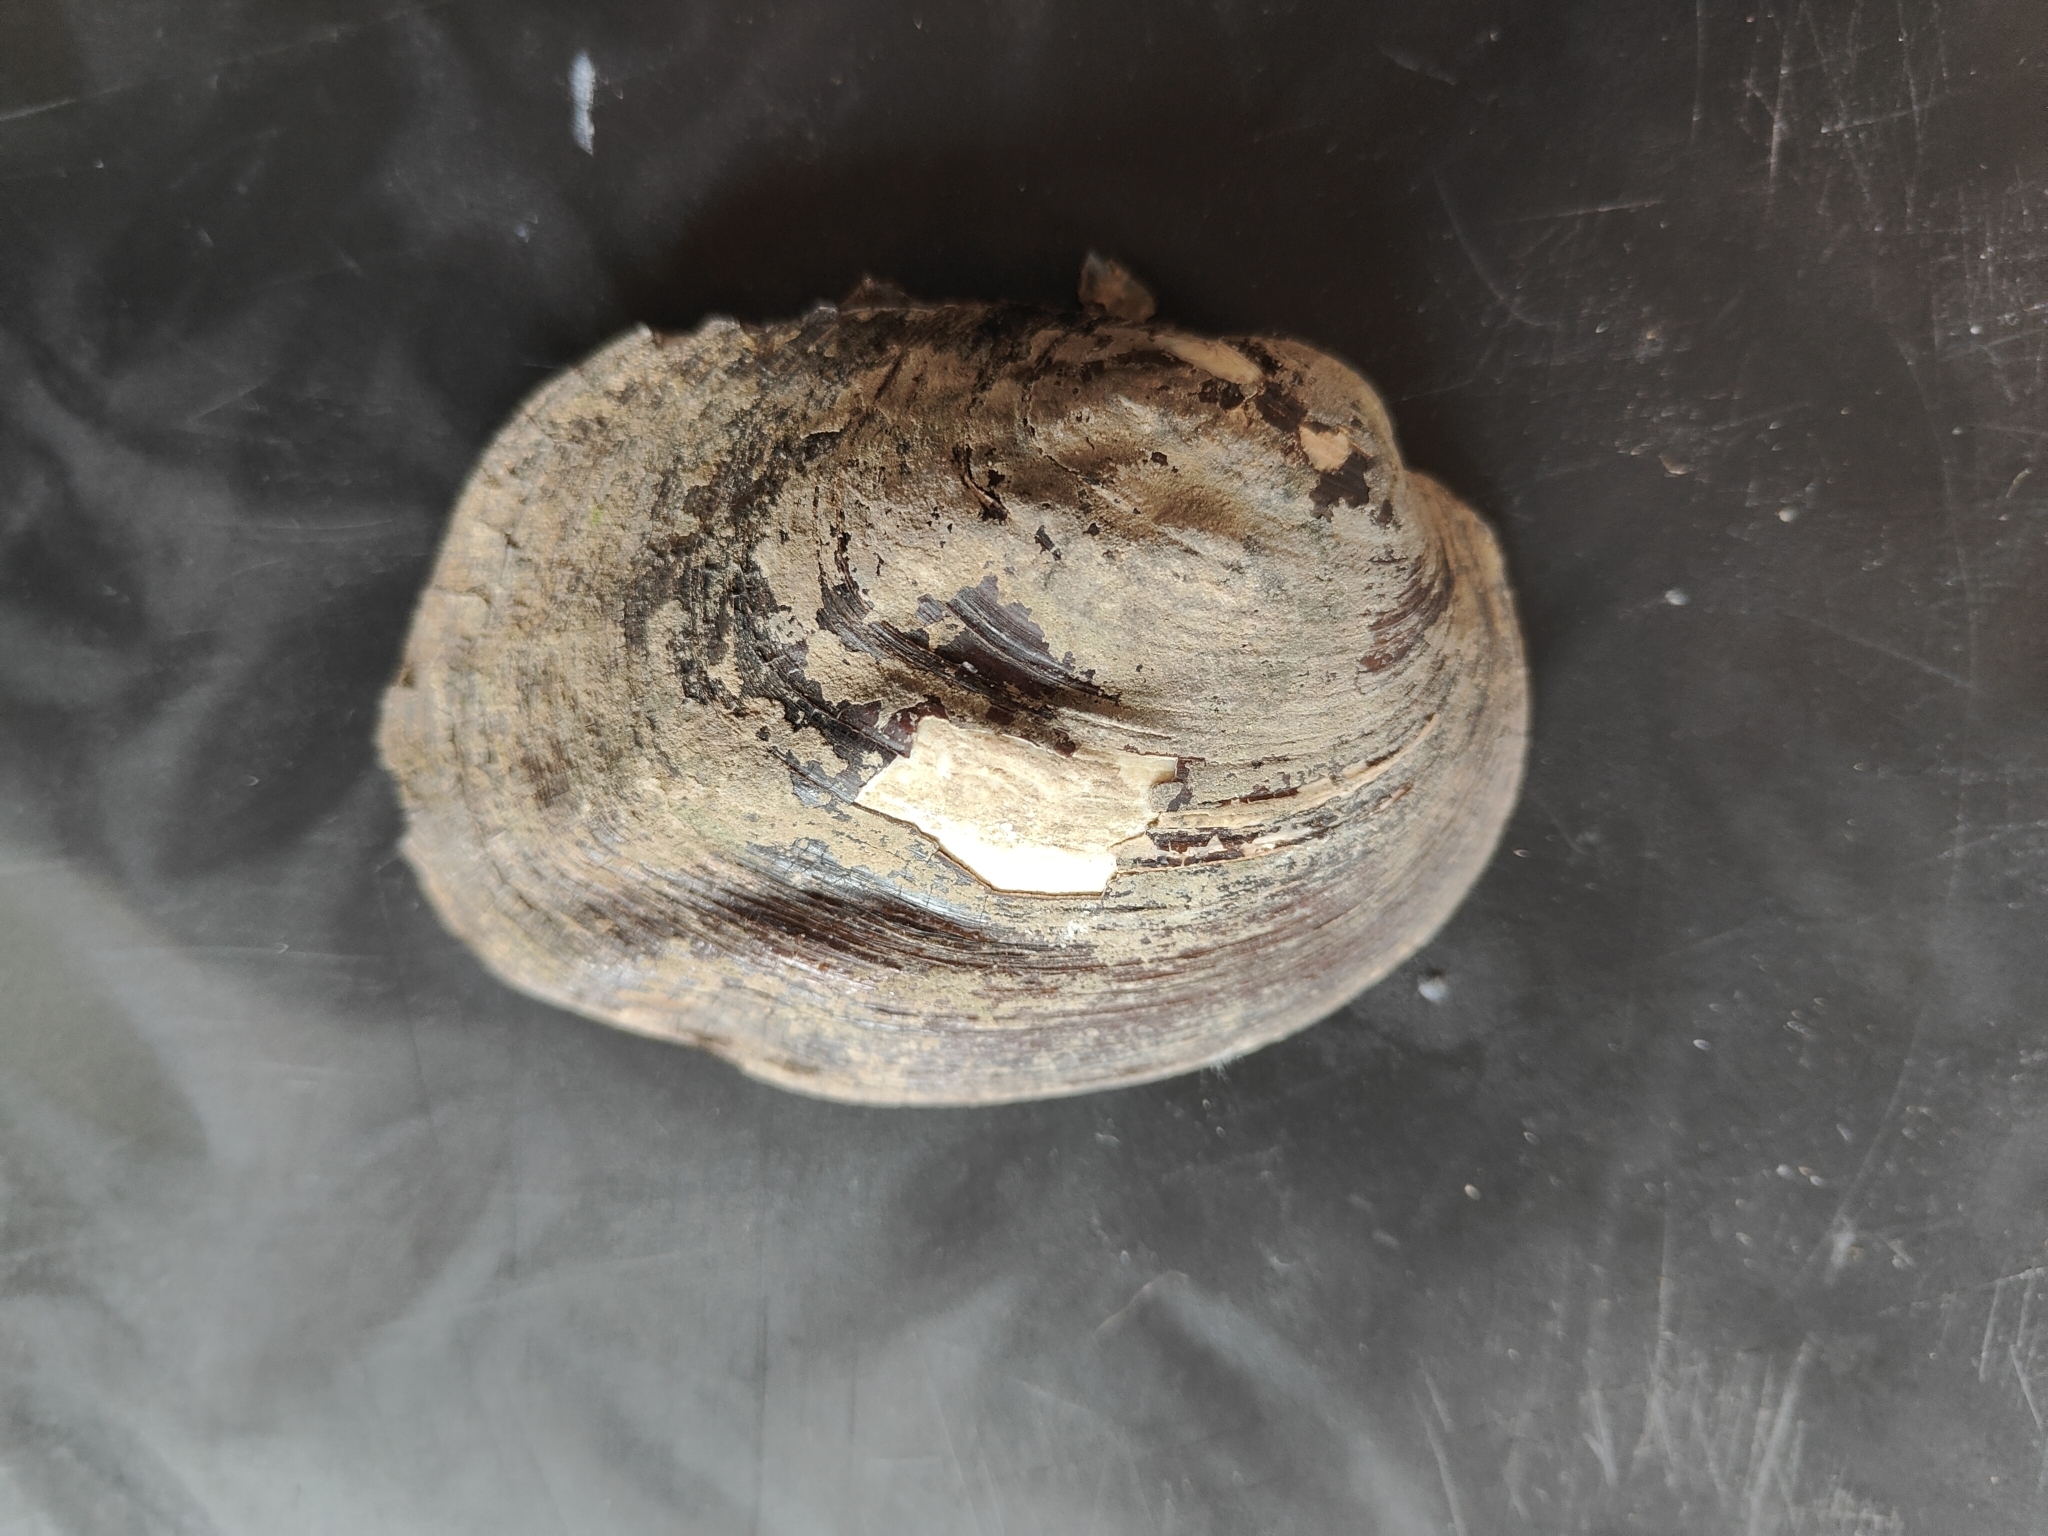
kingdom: Animalia
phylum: Mollusca
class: Bivalvia
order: Unionida
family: Unionidae
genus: Amblema
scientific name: Amblema plicata
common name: Threeridge
